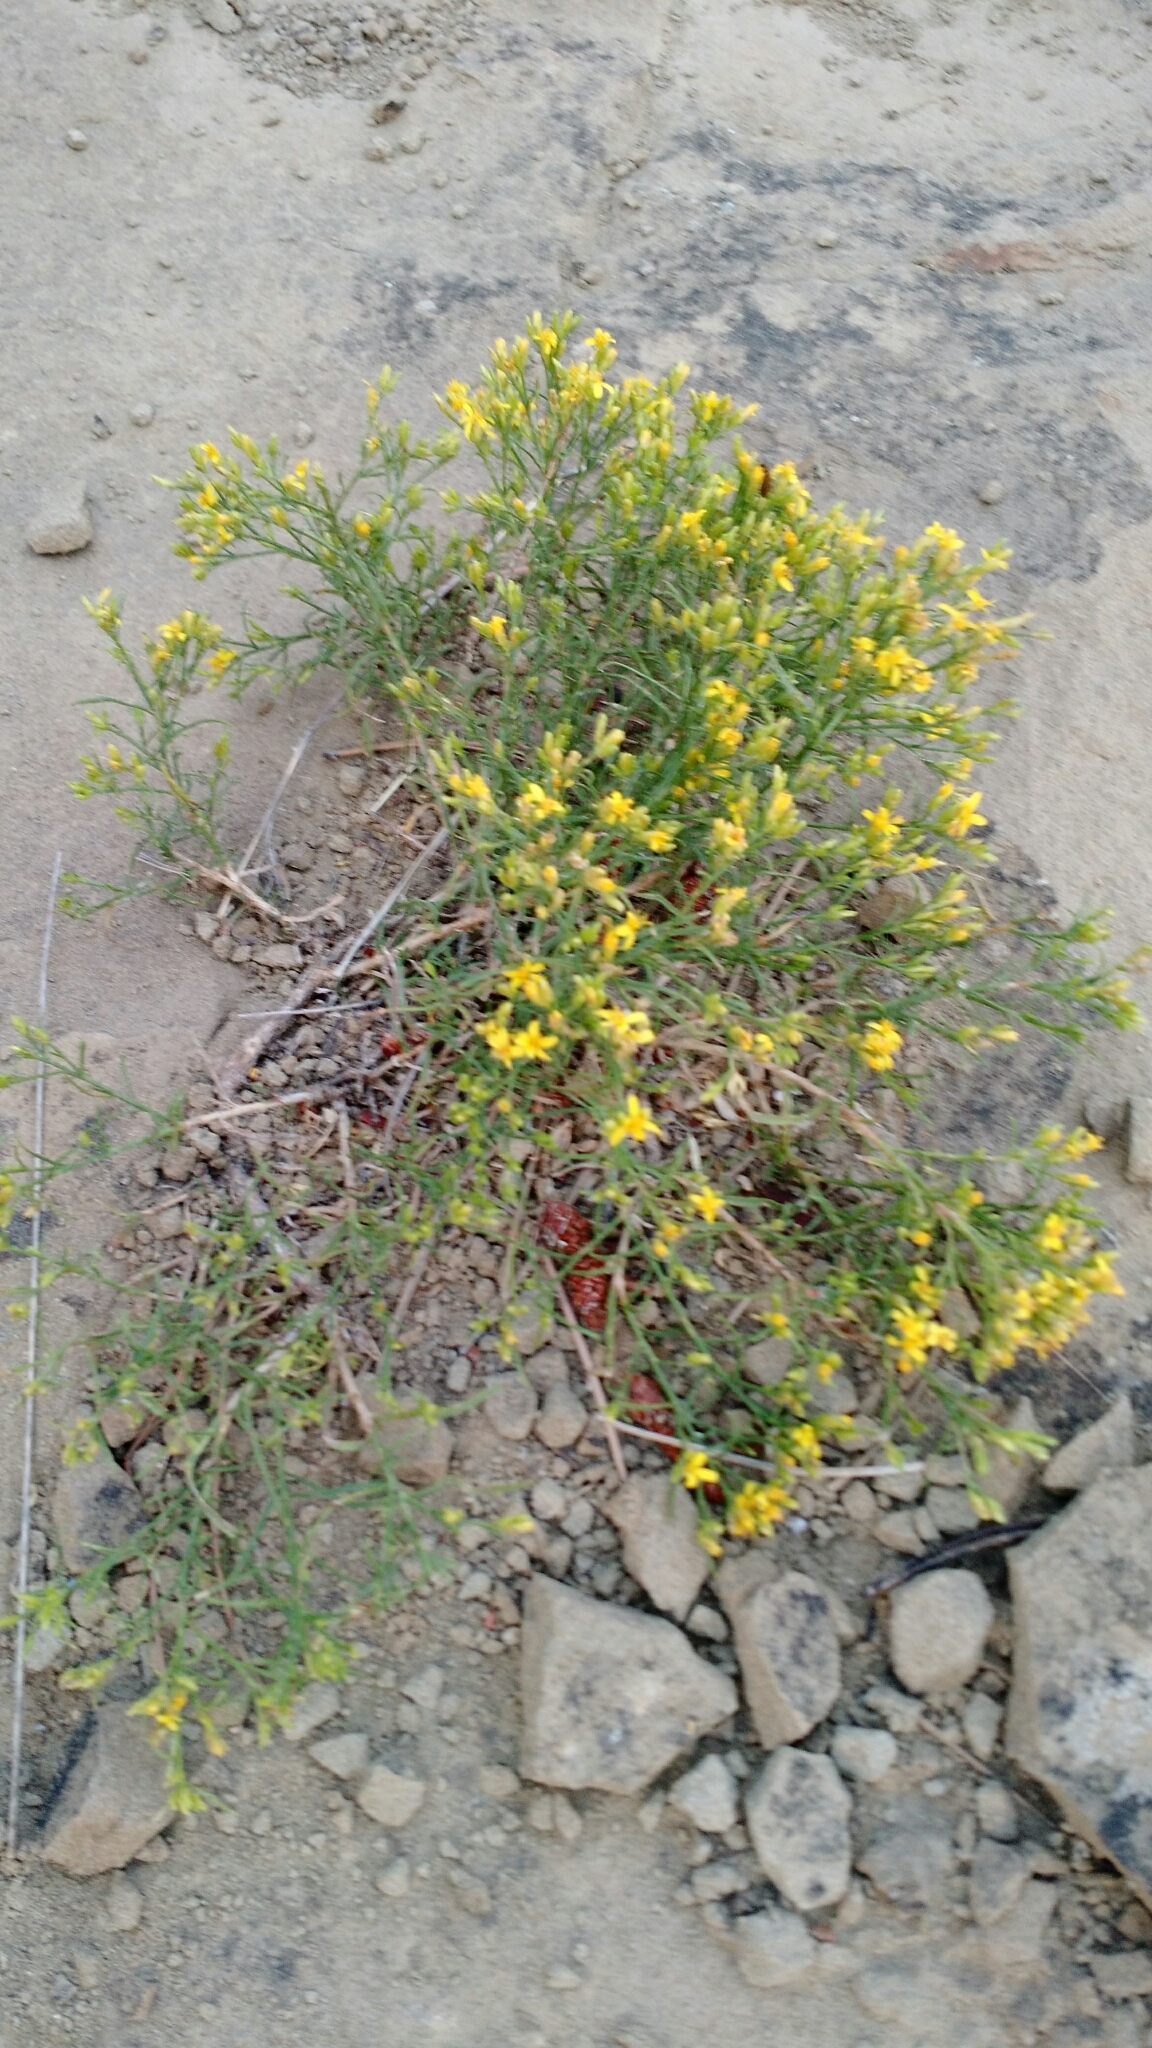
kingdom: Plantae
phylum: Tracheophyta
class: Magnoliopsida
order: Asterales
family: Asteraceae
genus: Gutierrezia
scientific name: Gutierrezia sarothrae
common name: Broom snakeweed
